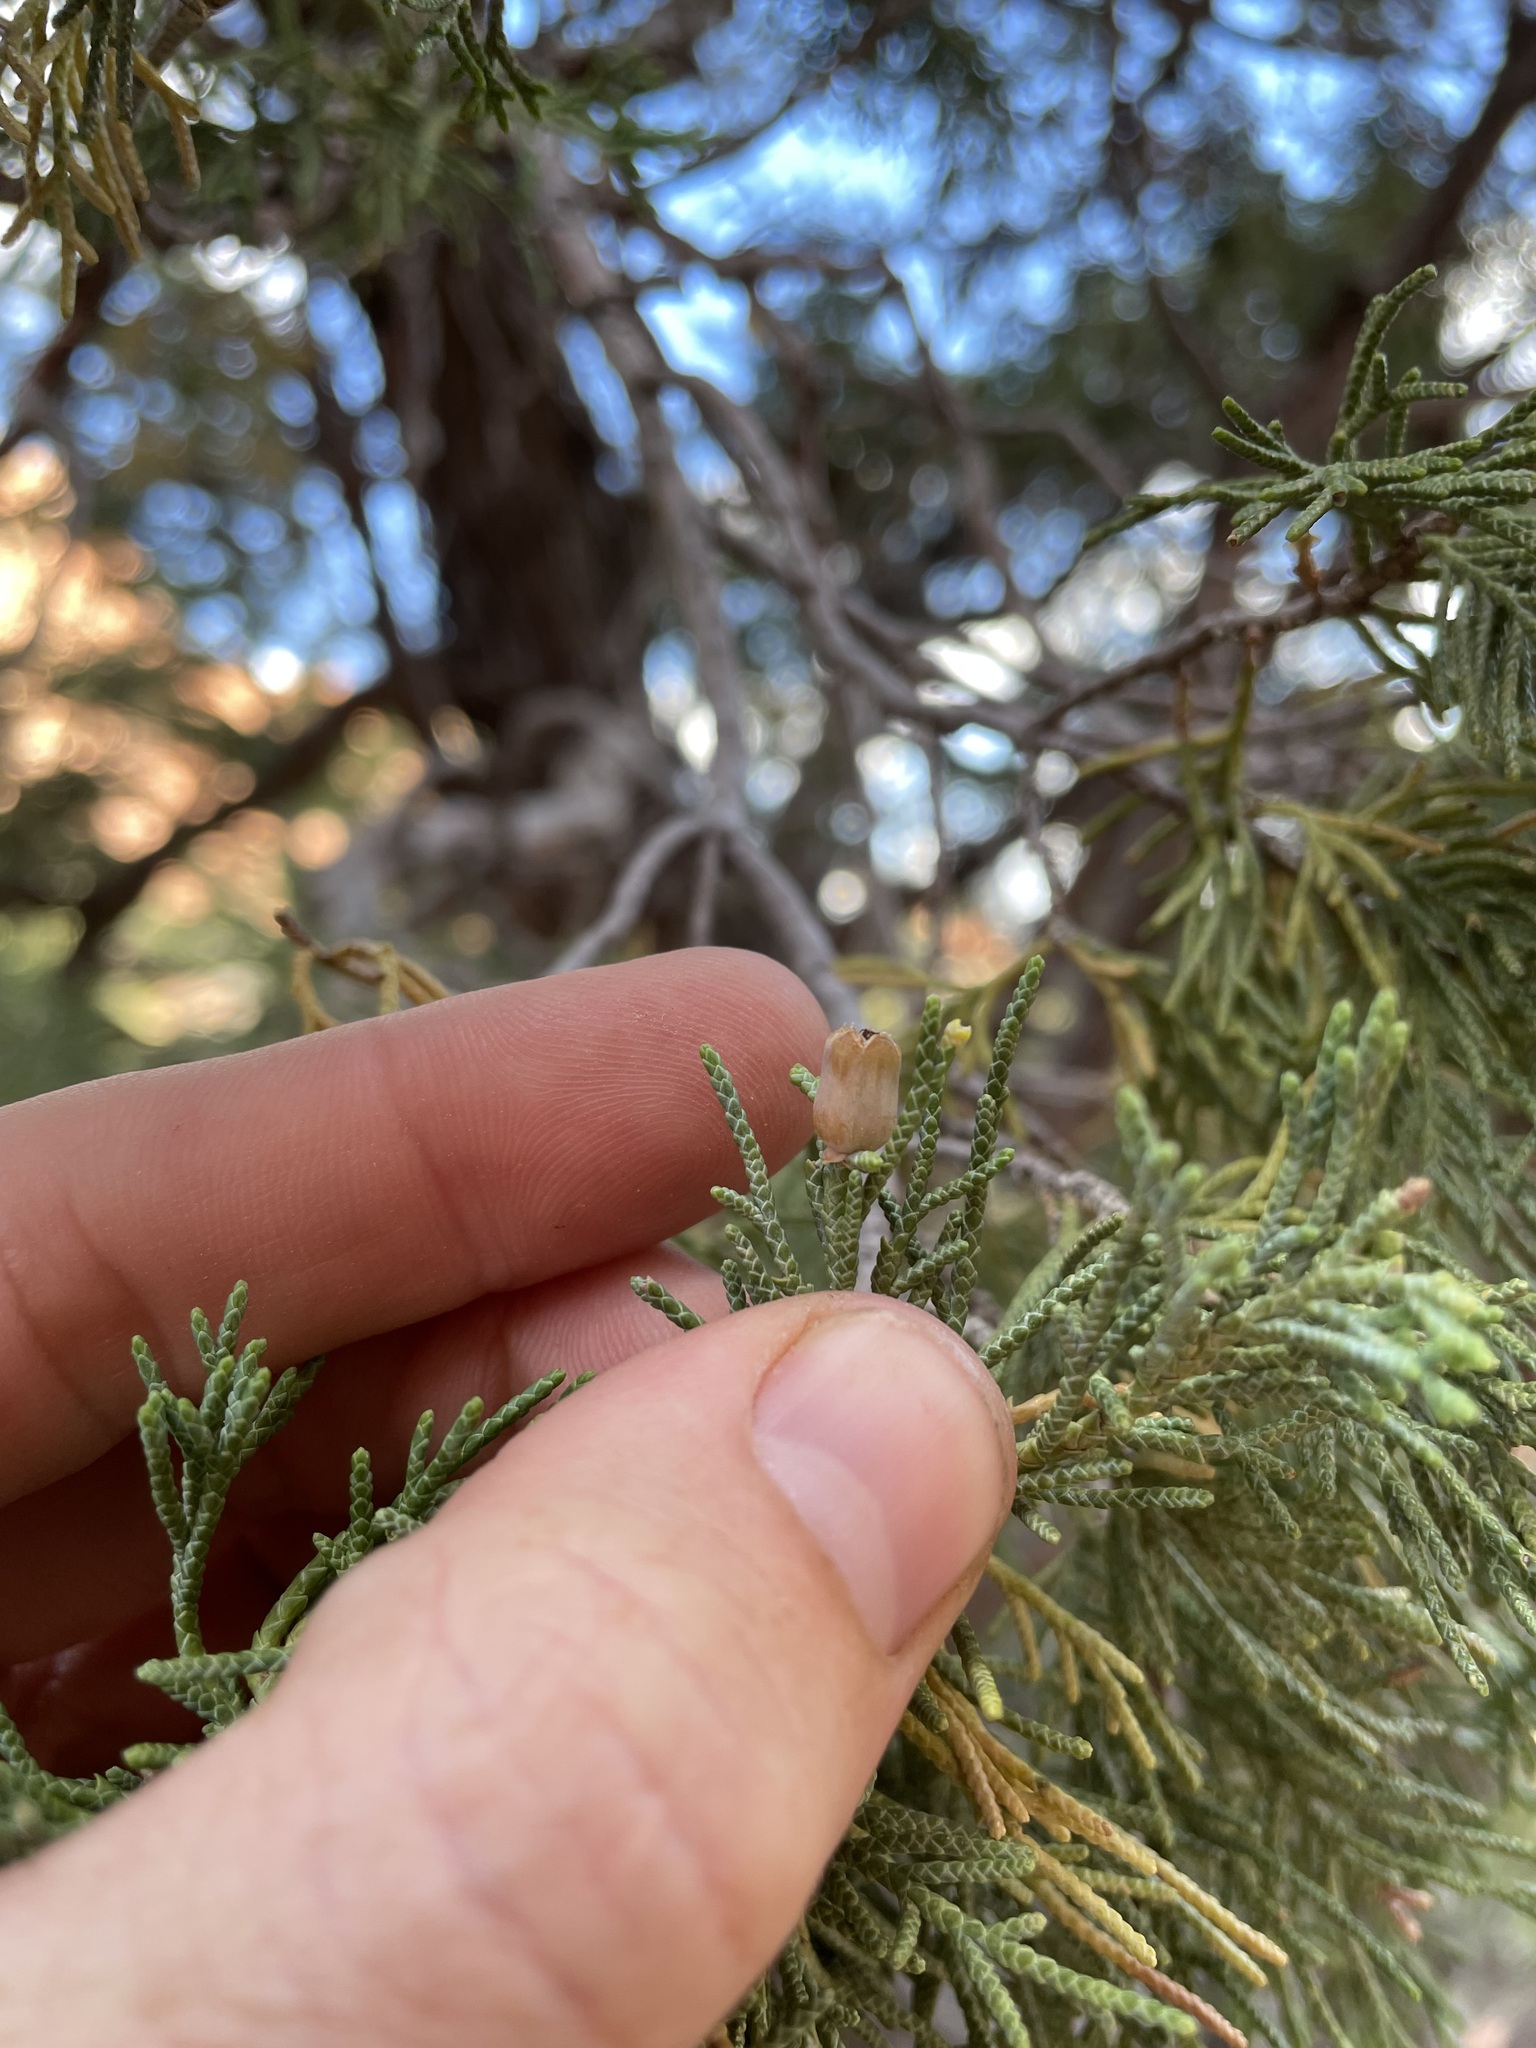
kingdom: Plantae
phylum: Tracheophyta
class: Pinopsida
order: Pinales
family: Cupressaceae
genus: Juniperus
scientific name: Juniperus scopulorum
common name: Rocky mountain juniper
